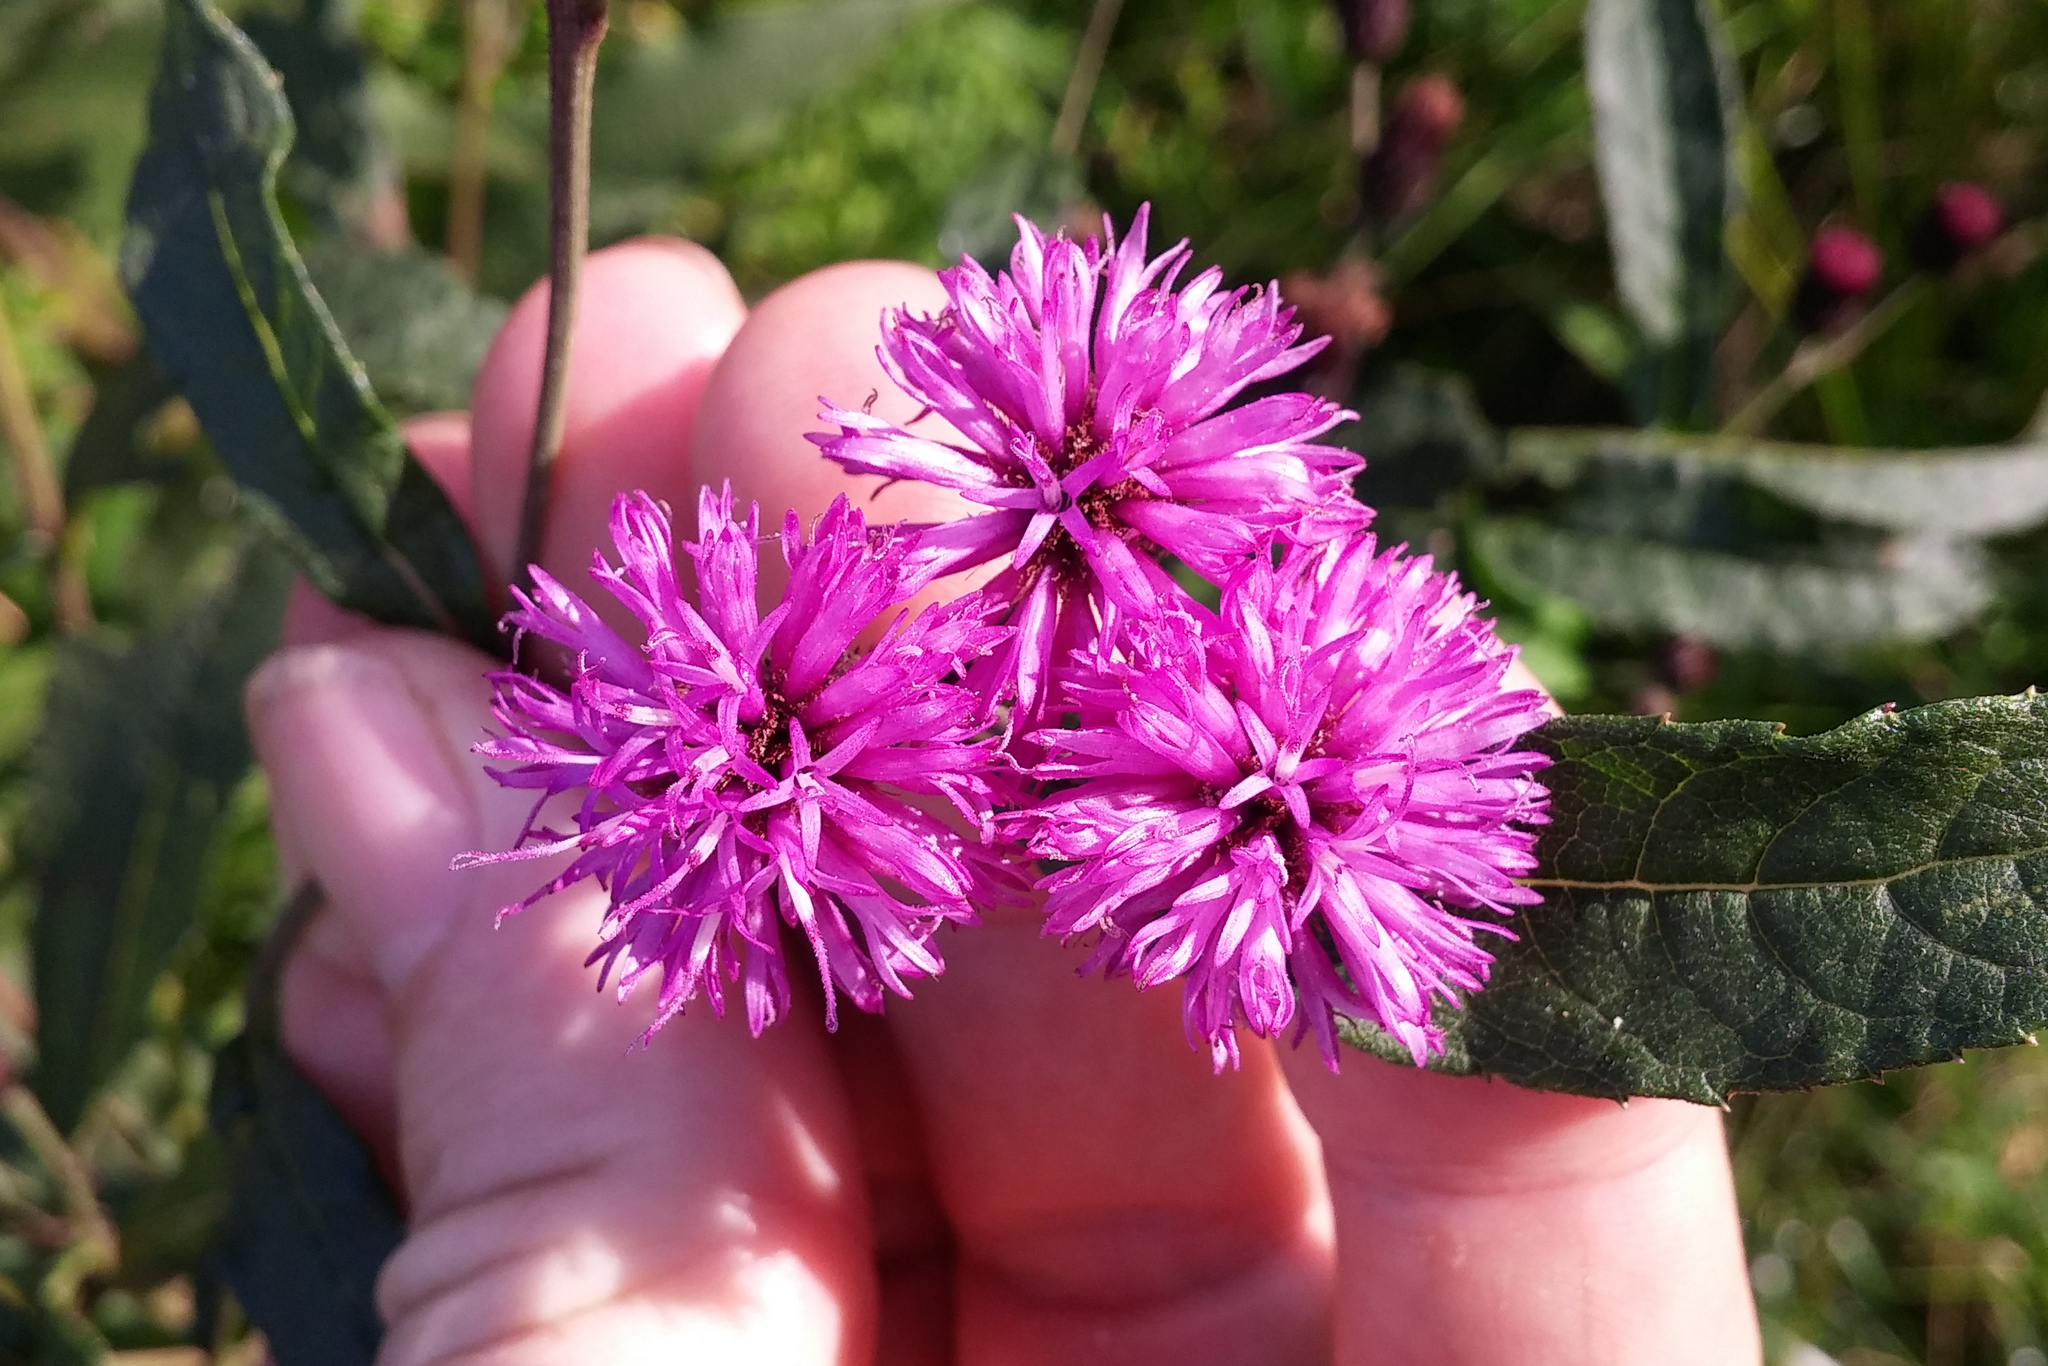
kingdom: Plantae
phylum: Tracheophyta
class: Magnoliopsida
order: Asterales
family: Asteraceae
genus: Vernonia
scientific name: Vernonia noveboracensis
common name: New york ironweed
